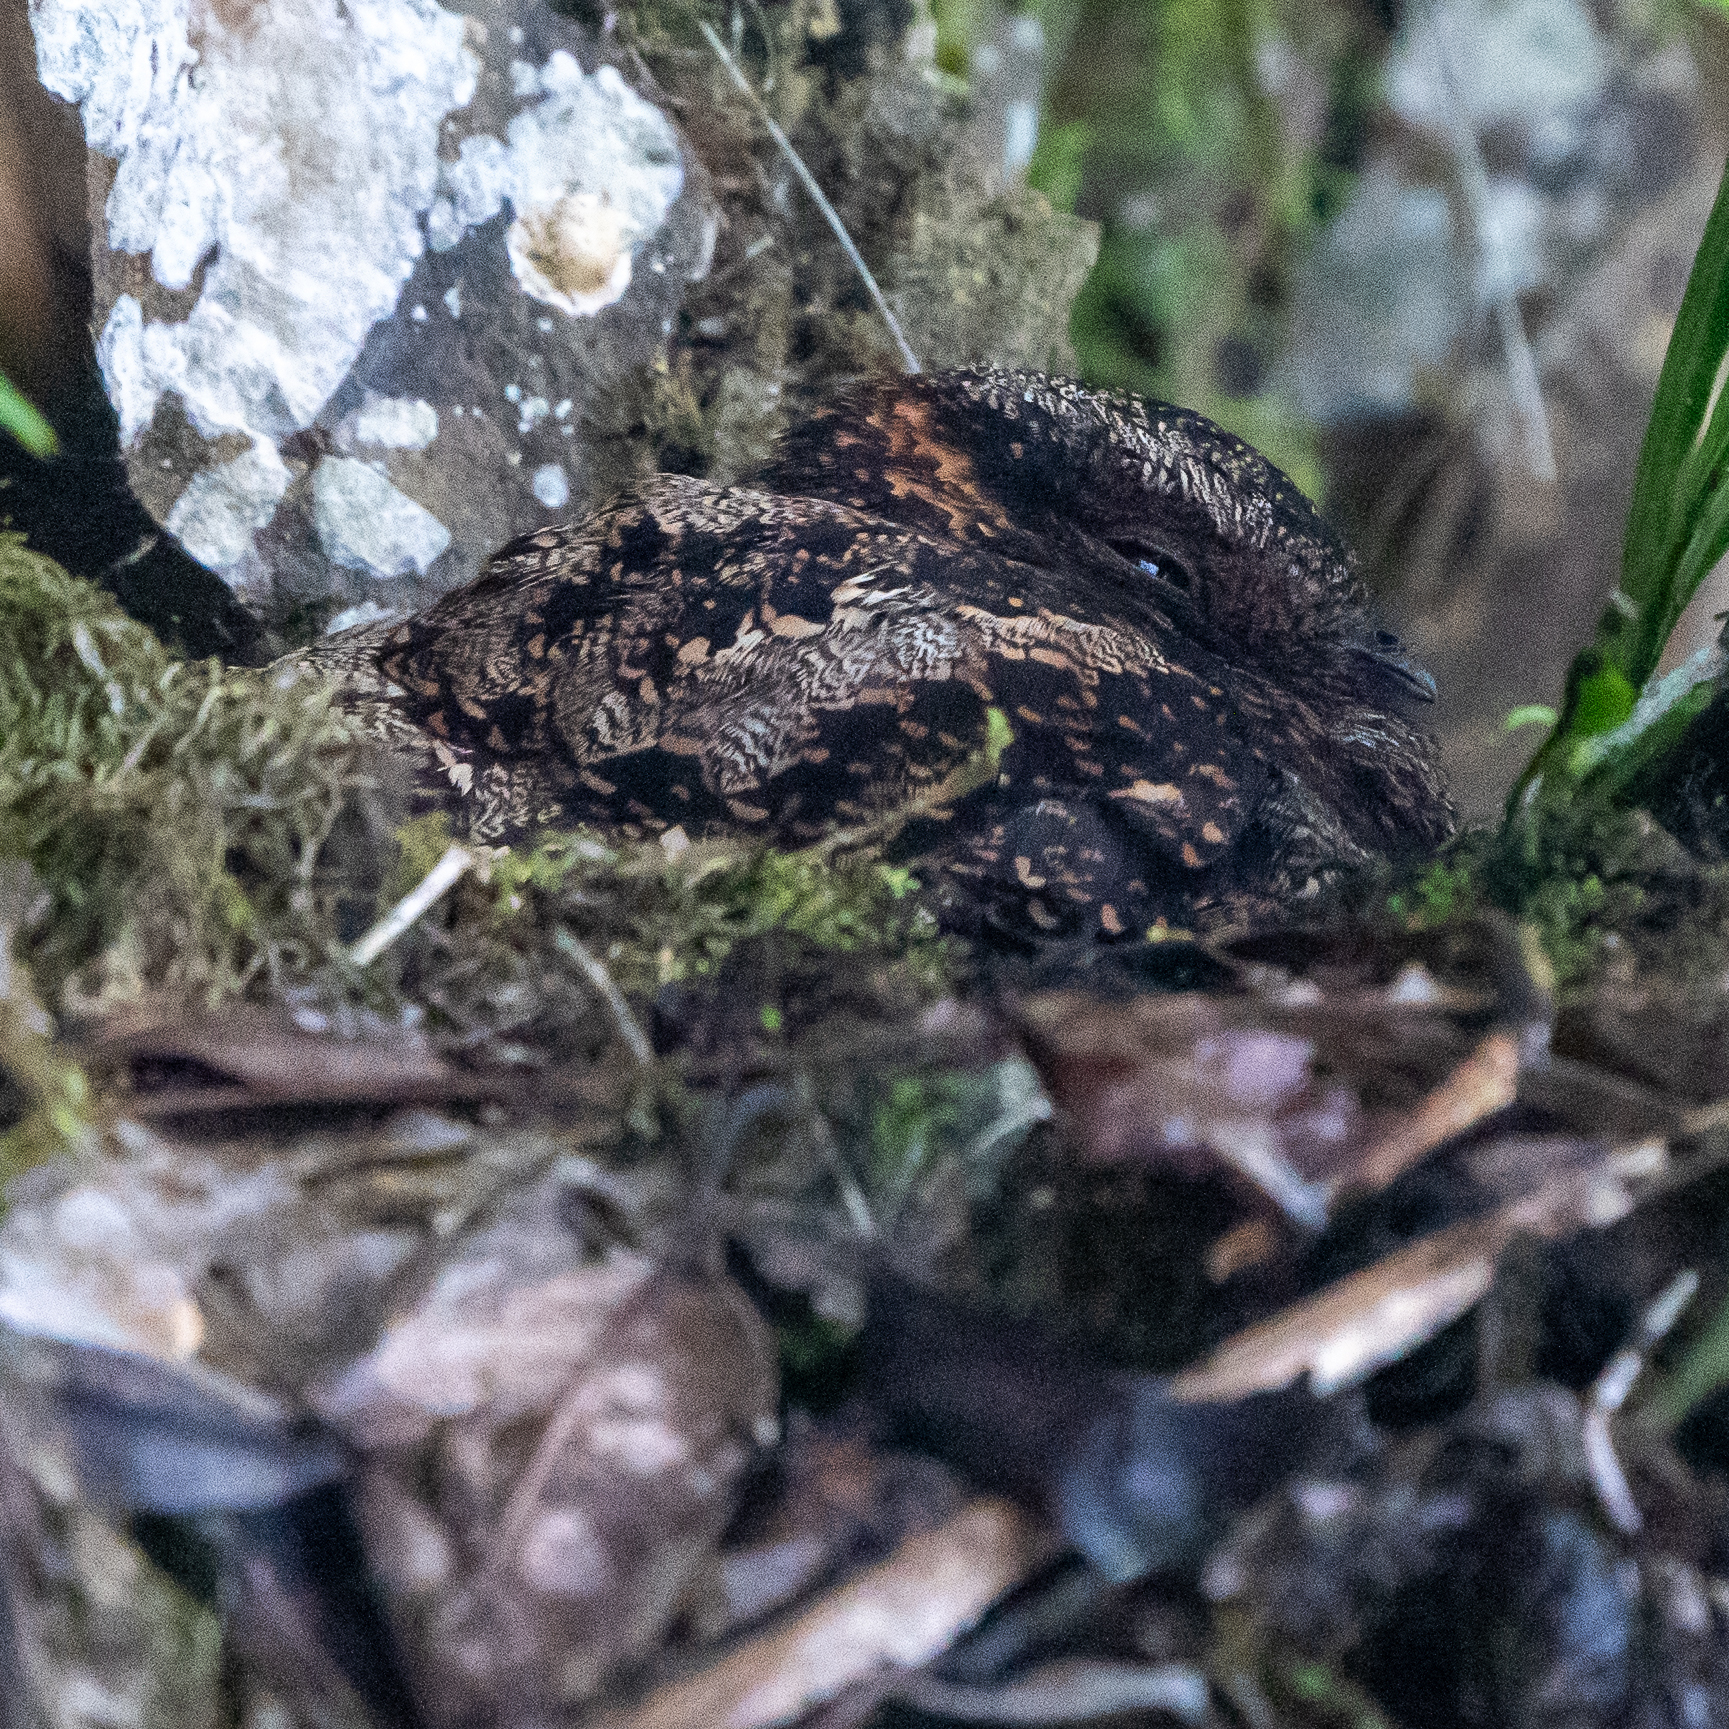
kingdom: Animalia
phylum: Chordata
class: Aves
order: Caprimulgiformes
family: Caprimulgidae
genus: Uropsalis
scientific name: Uropsalis lyra
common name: Lyre-tailed nightjar
